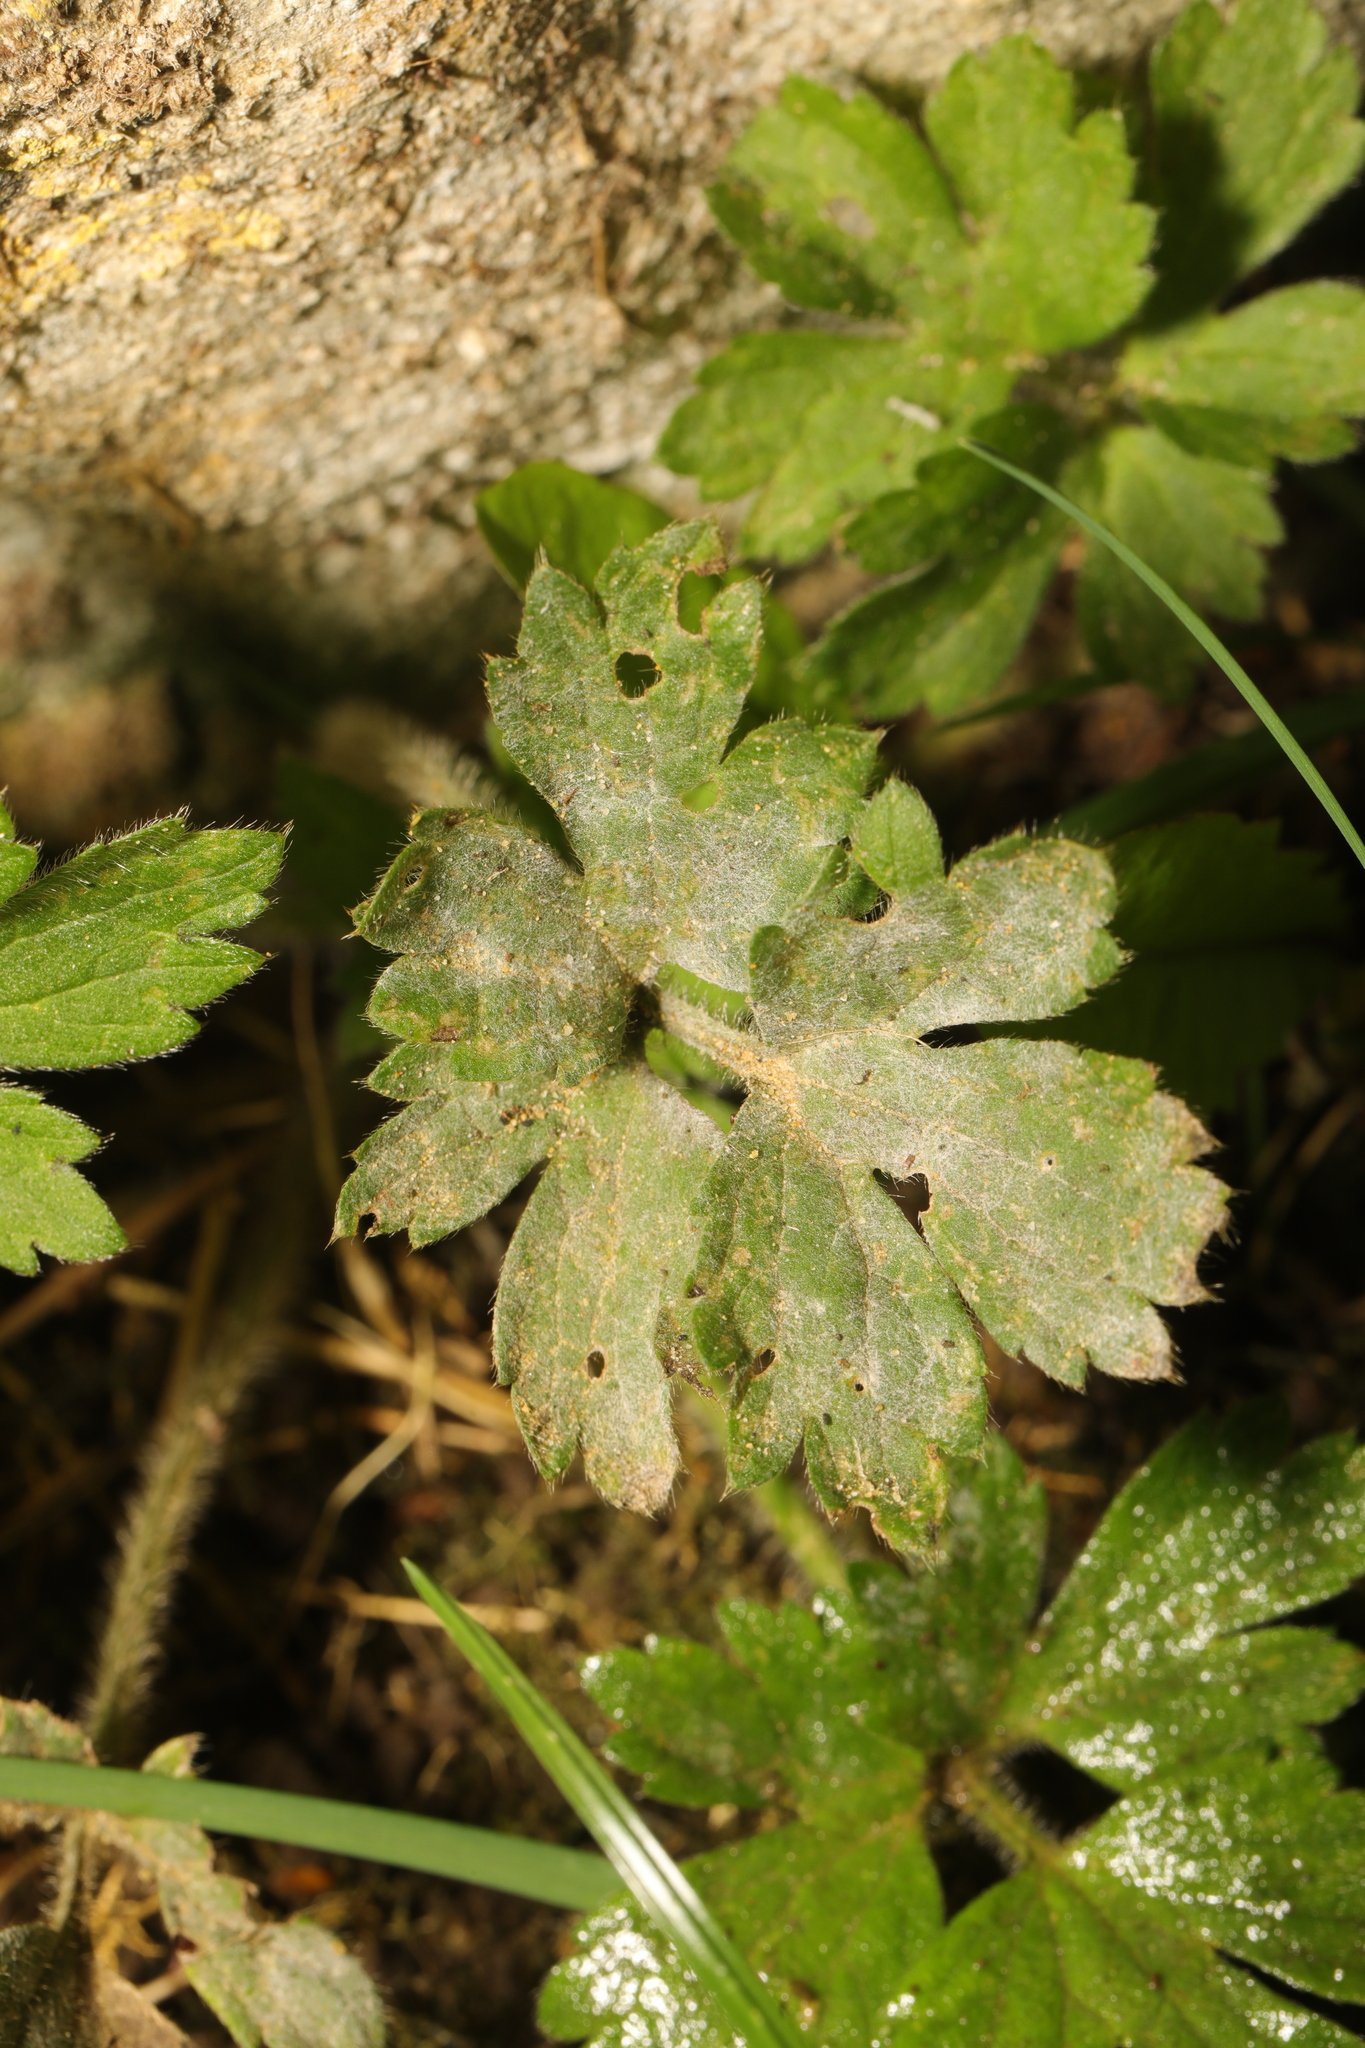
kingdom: Fungi
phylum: Ascomycota
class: Leotiomycetes
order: Helotiales
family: Erysiphaceae
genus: Erysiphe
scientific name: Erysiphe aquilegiae
